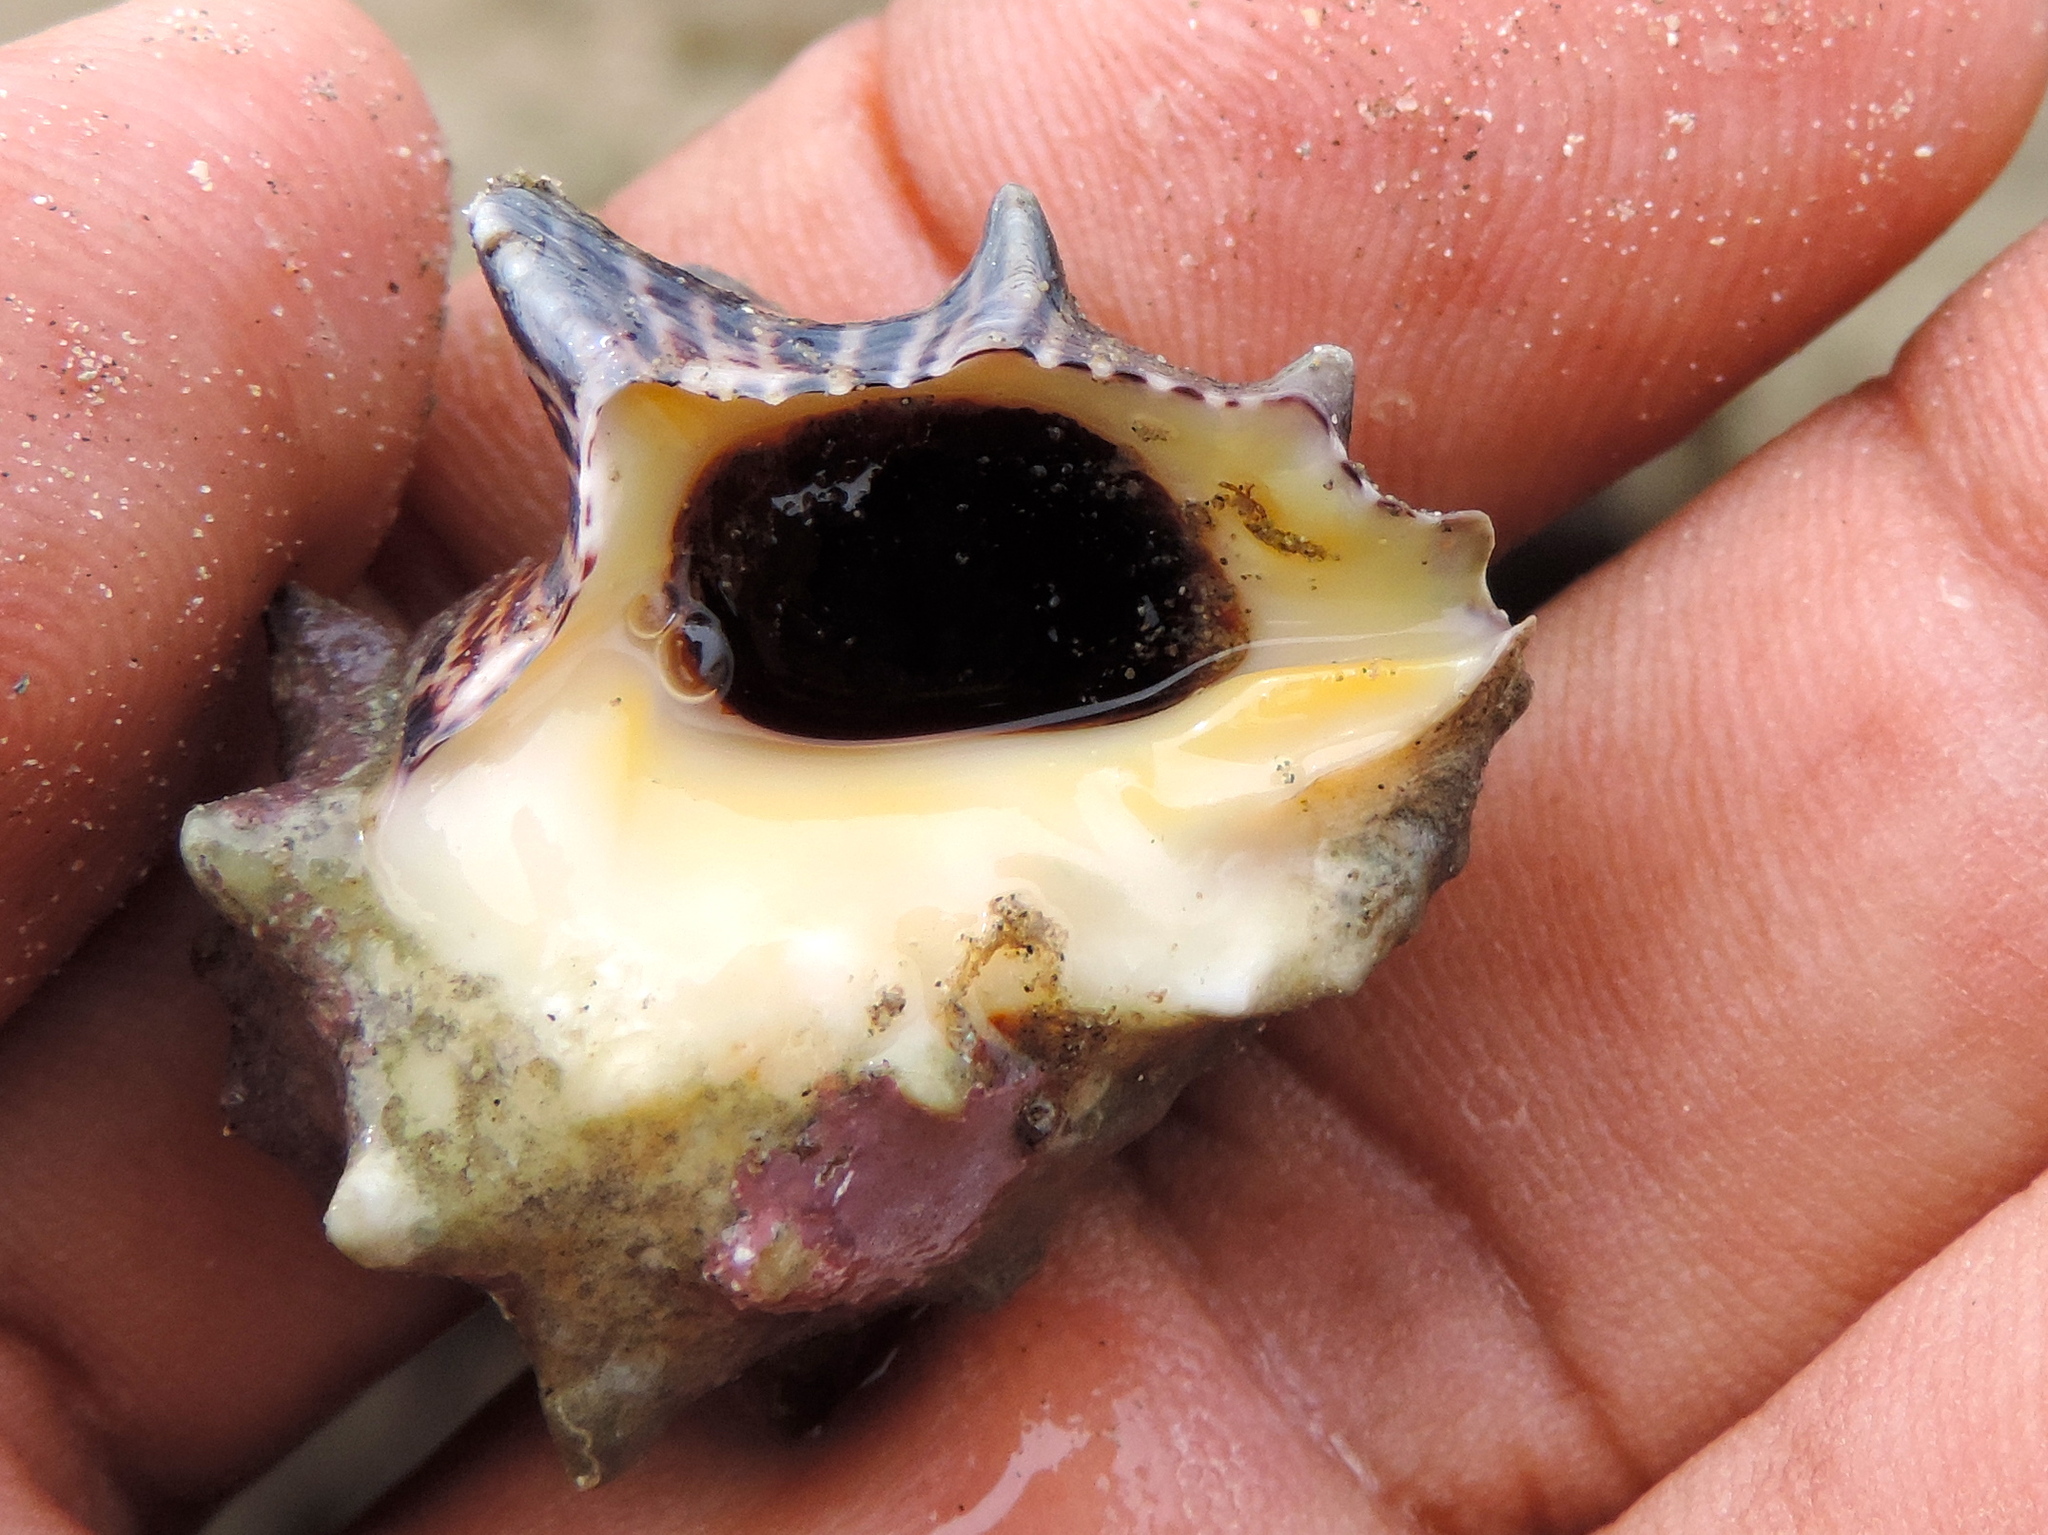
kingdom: Animalia
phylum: Mollusca
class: Gastropoda
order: Neogastropoda
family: Muricidae
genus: Vasula
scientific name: Vasula speciosa
